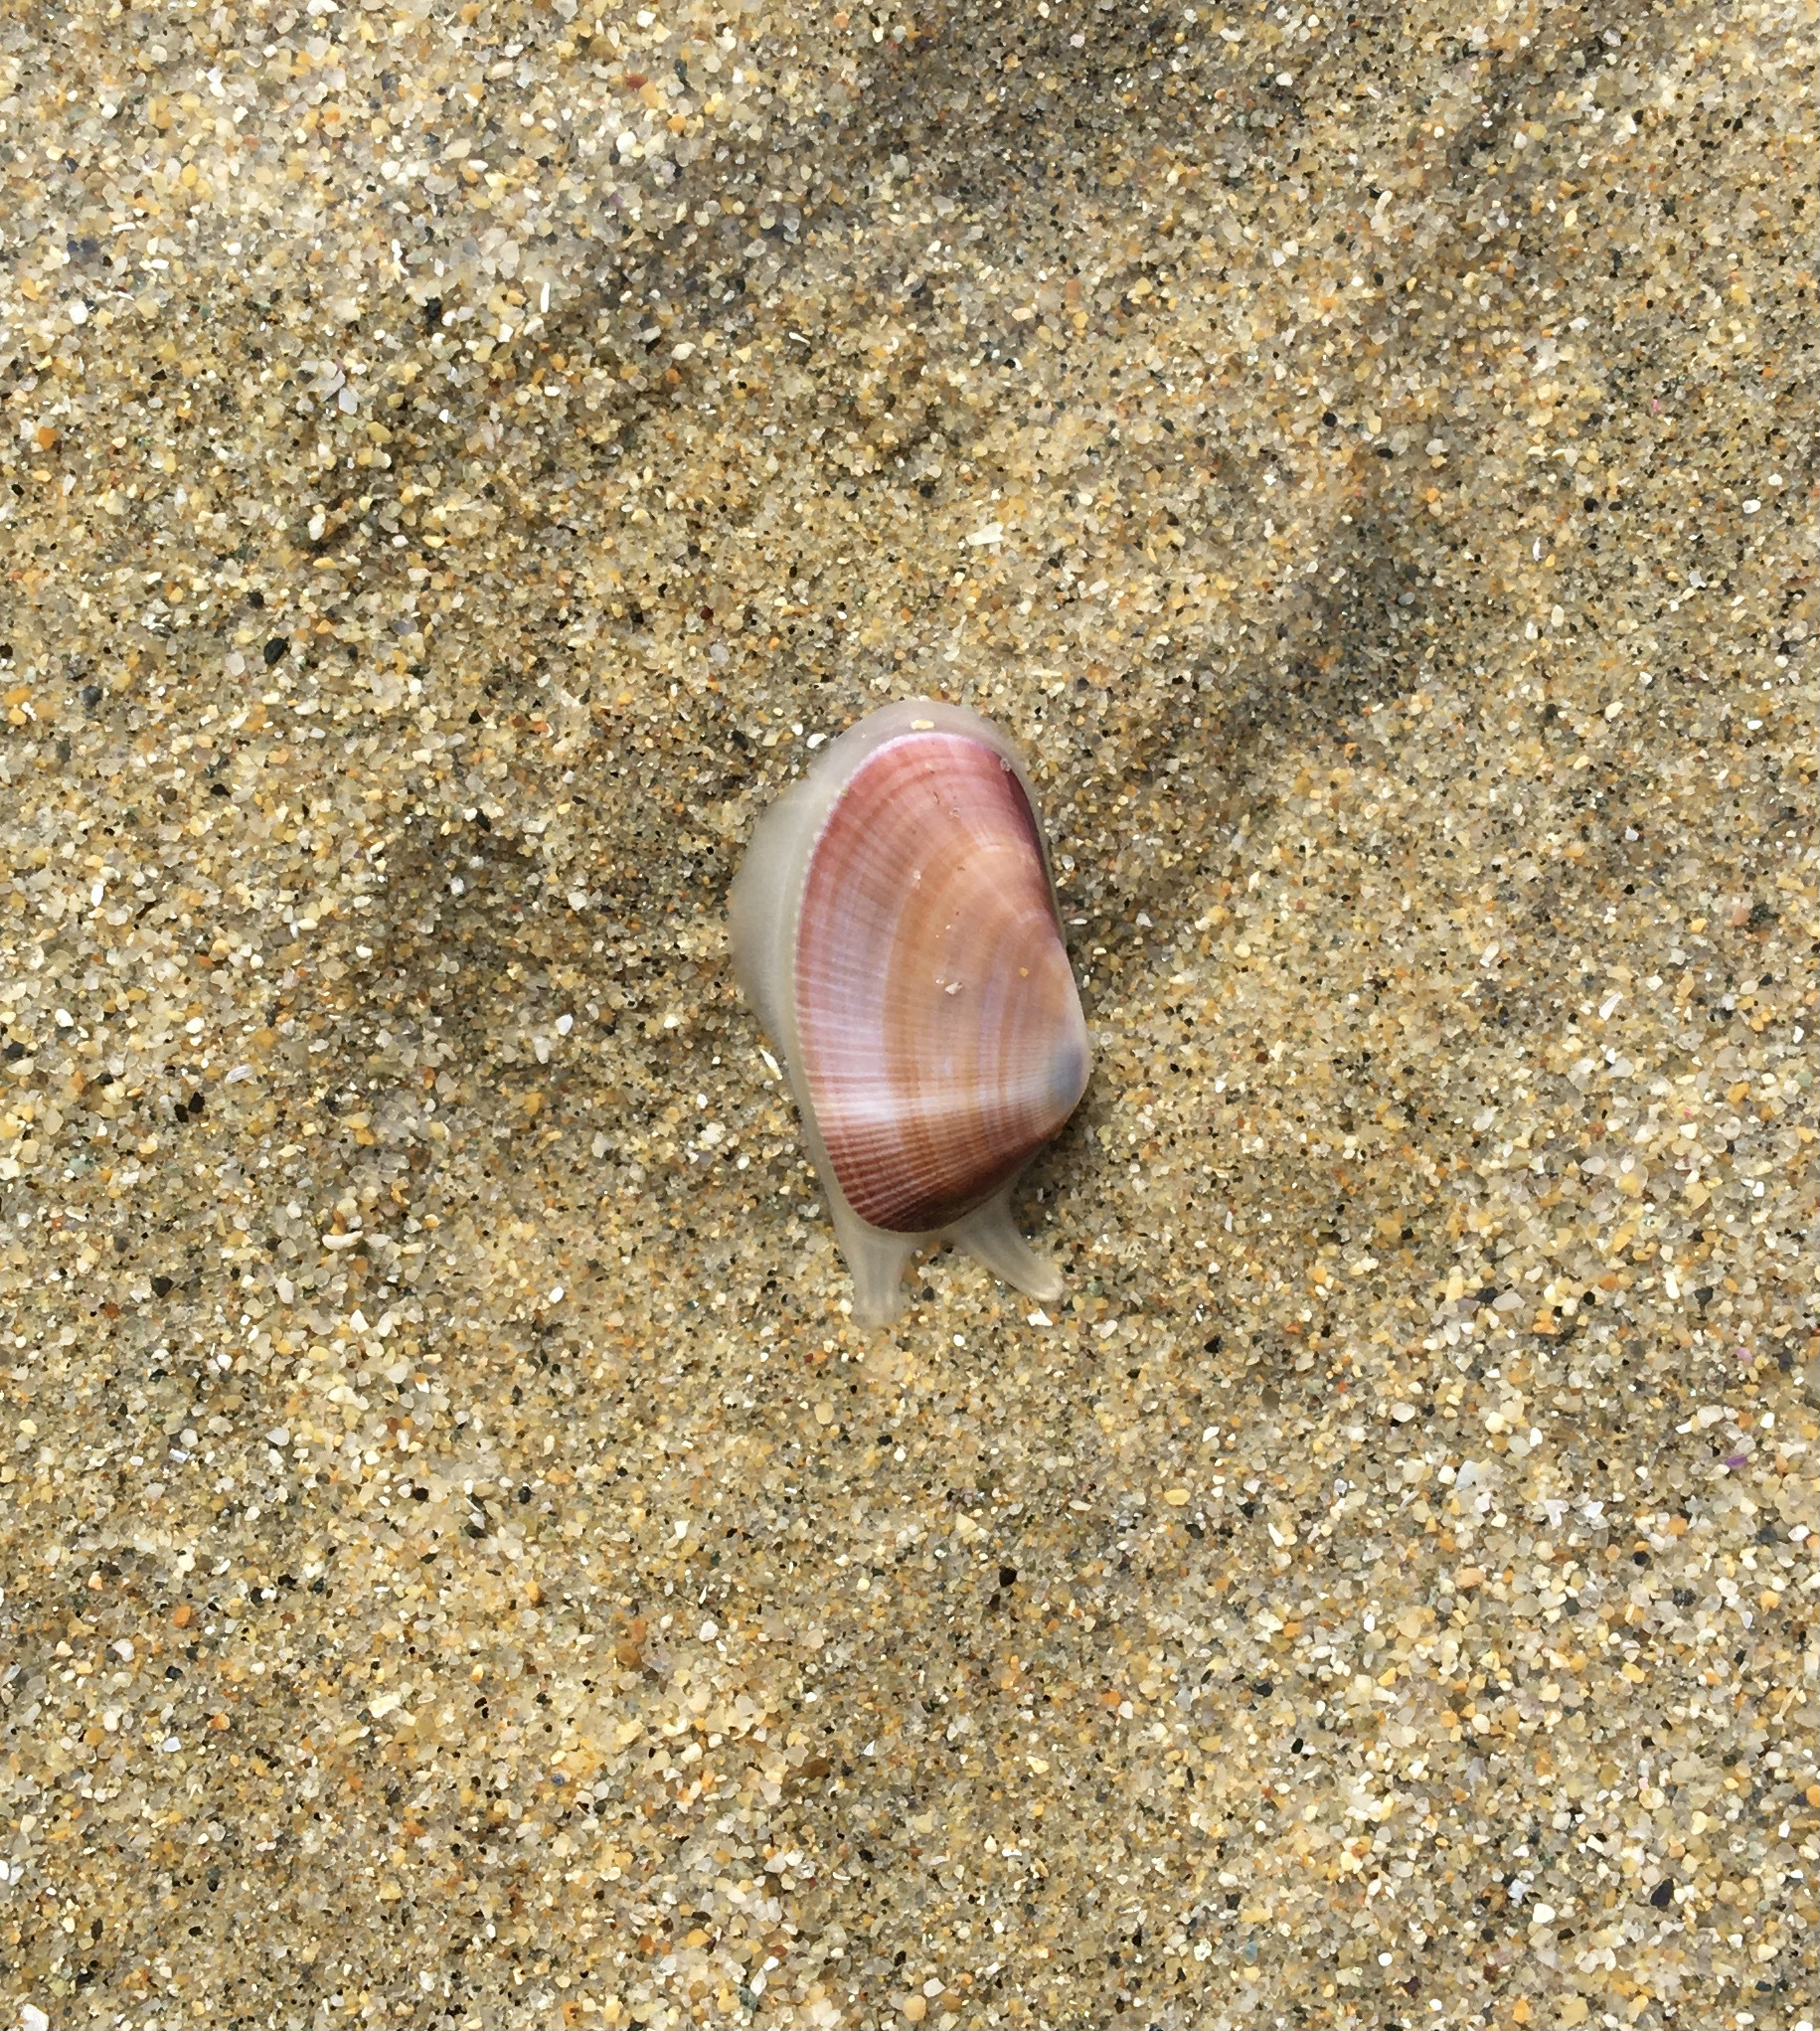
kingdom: Animalia
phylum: Mollusca
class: Bivalvia
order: Cardiida
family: Donacidae
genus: Donax
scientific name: Donax gouldii
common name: Gould beanclam
